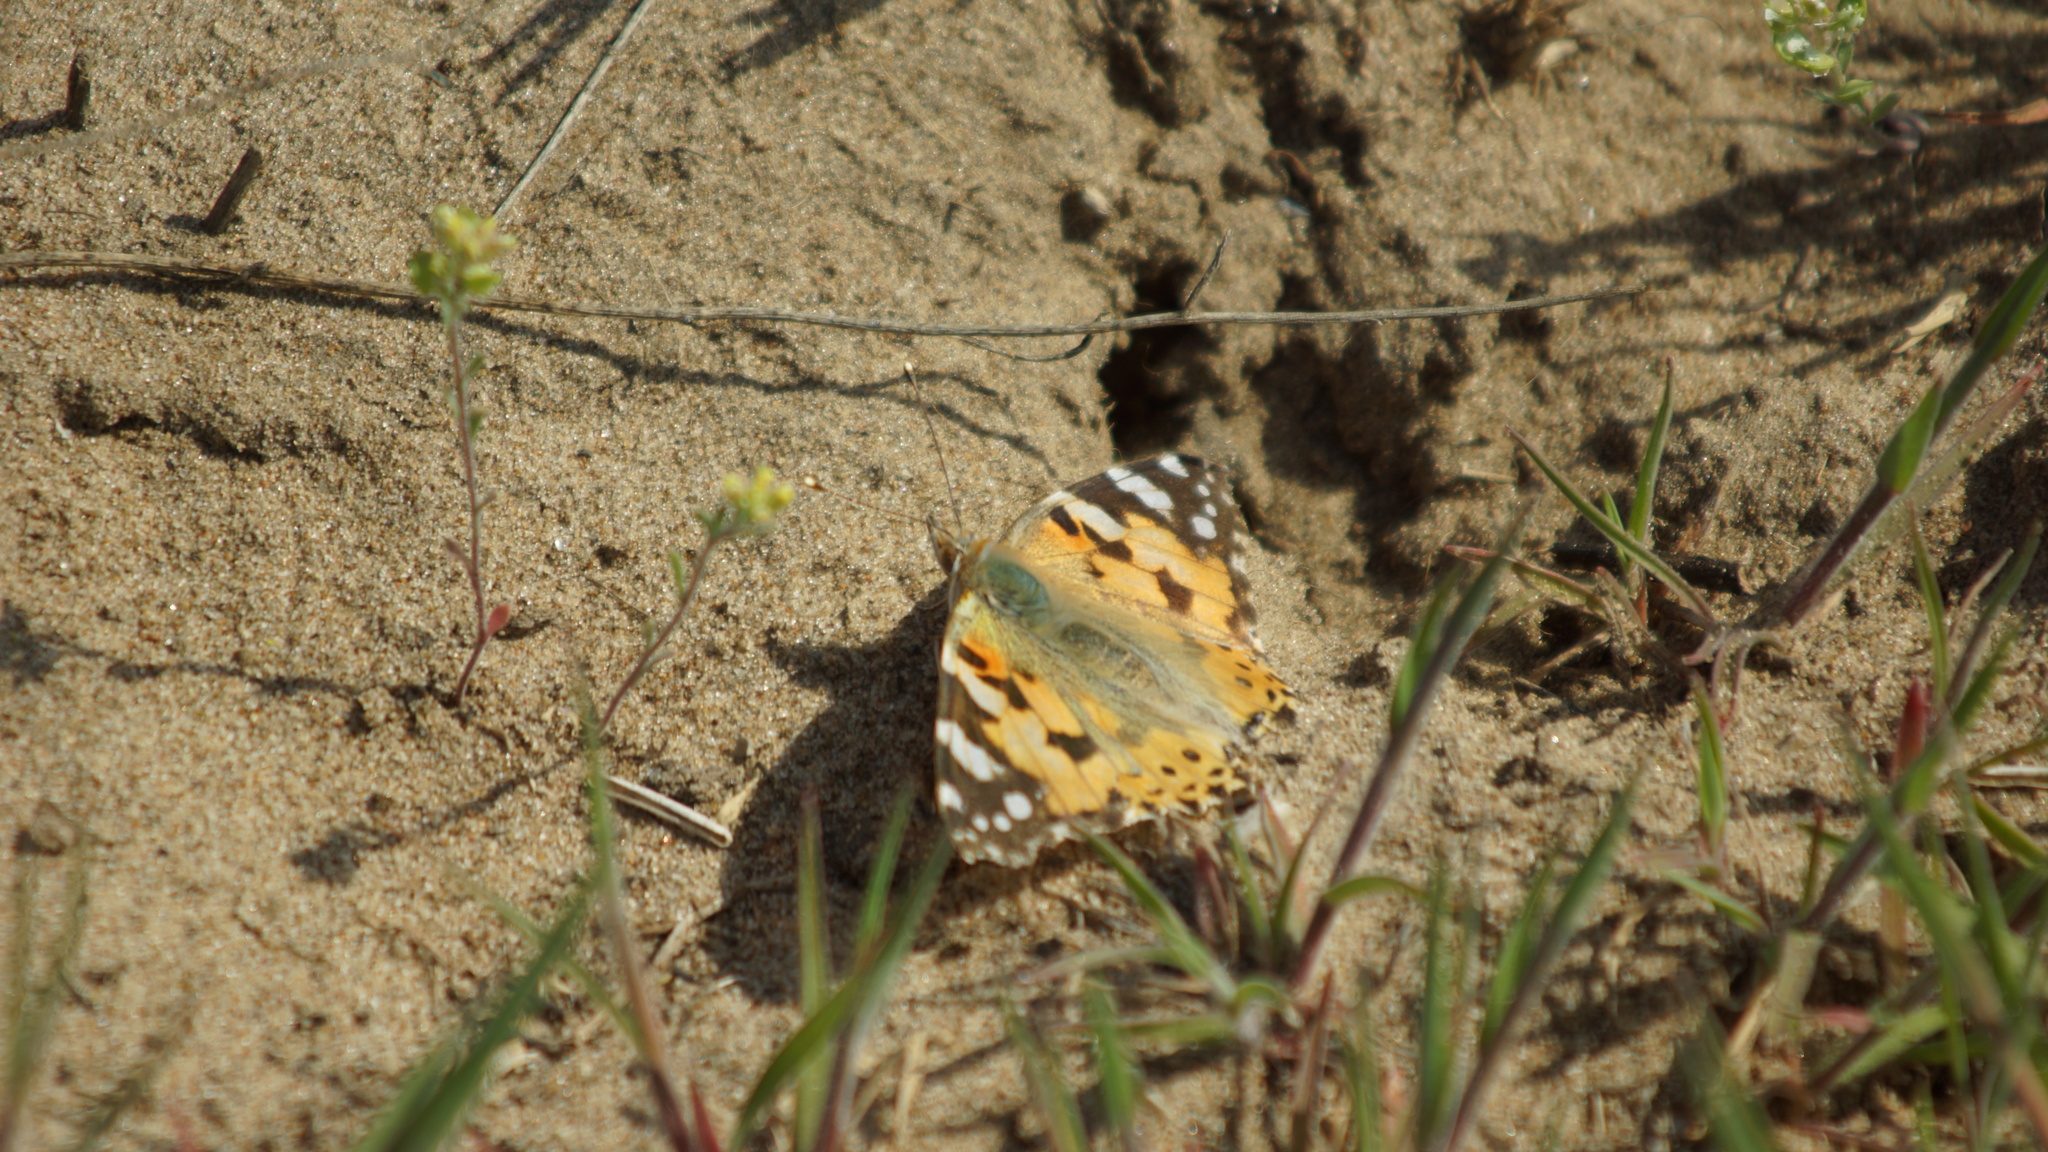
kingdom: Animalia
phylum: Arthropoda
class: Insecta
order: Lepidoptera
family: Nymphalidae
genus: Vanessa
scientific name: Vanessa cardui
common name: Painted lady
